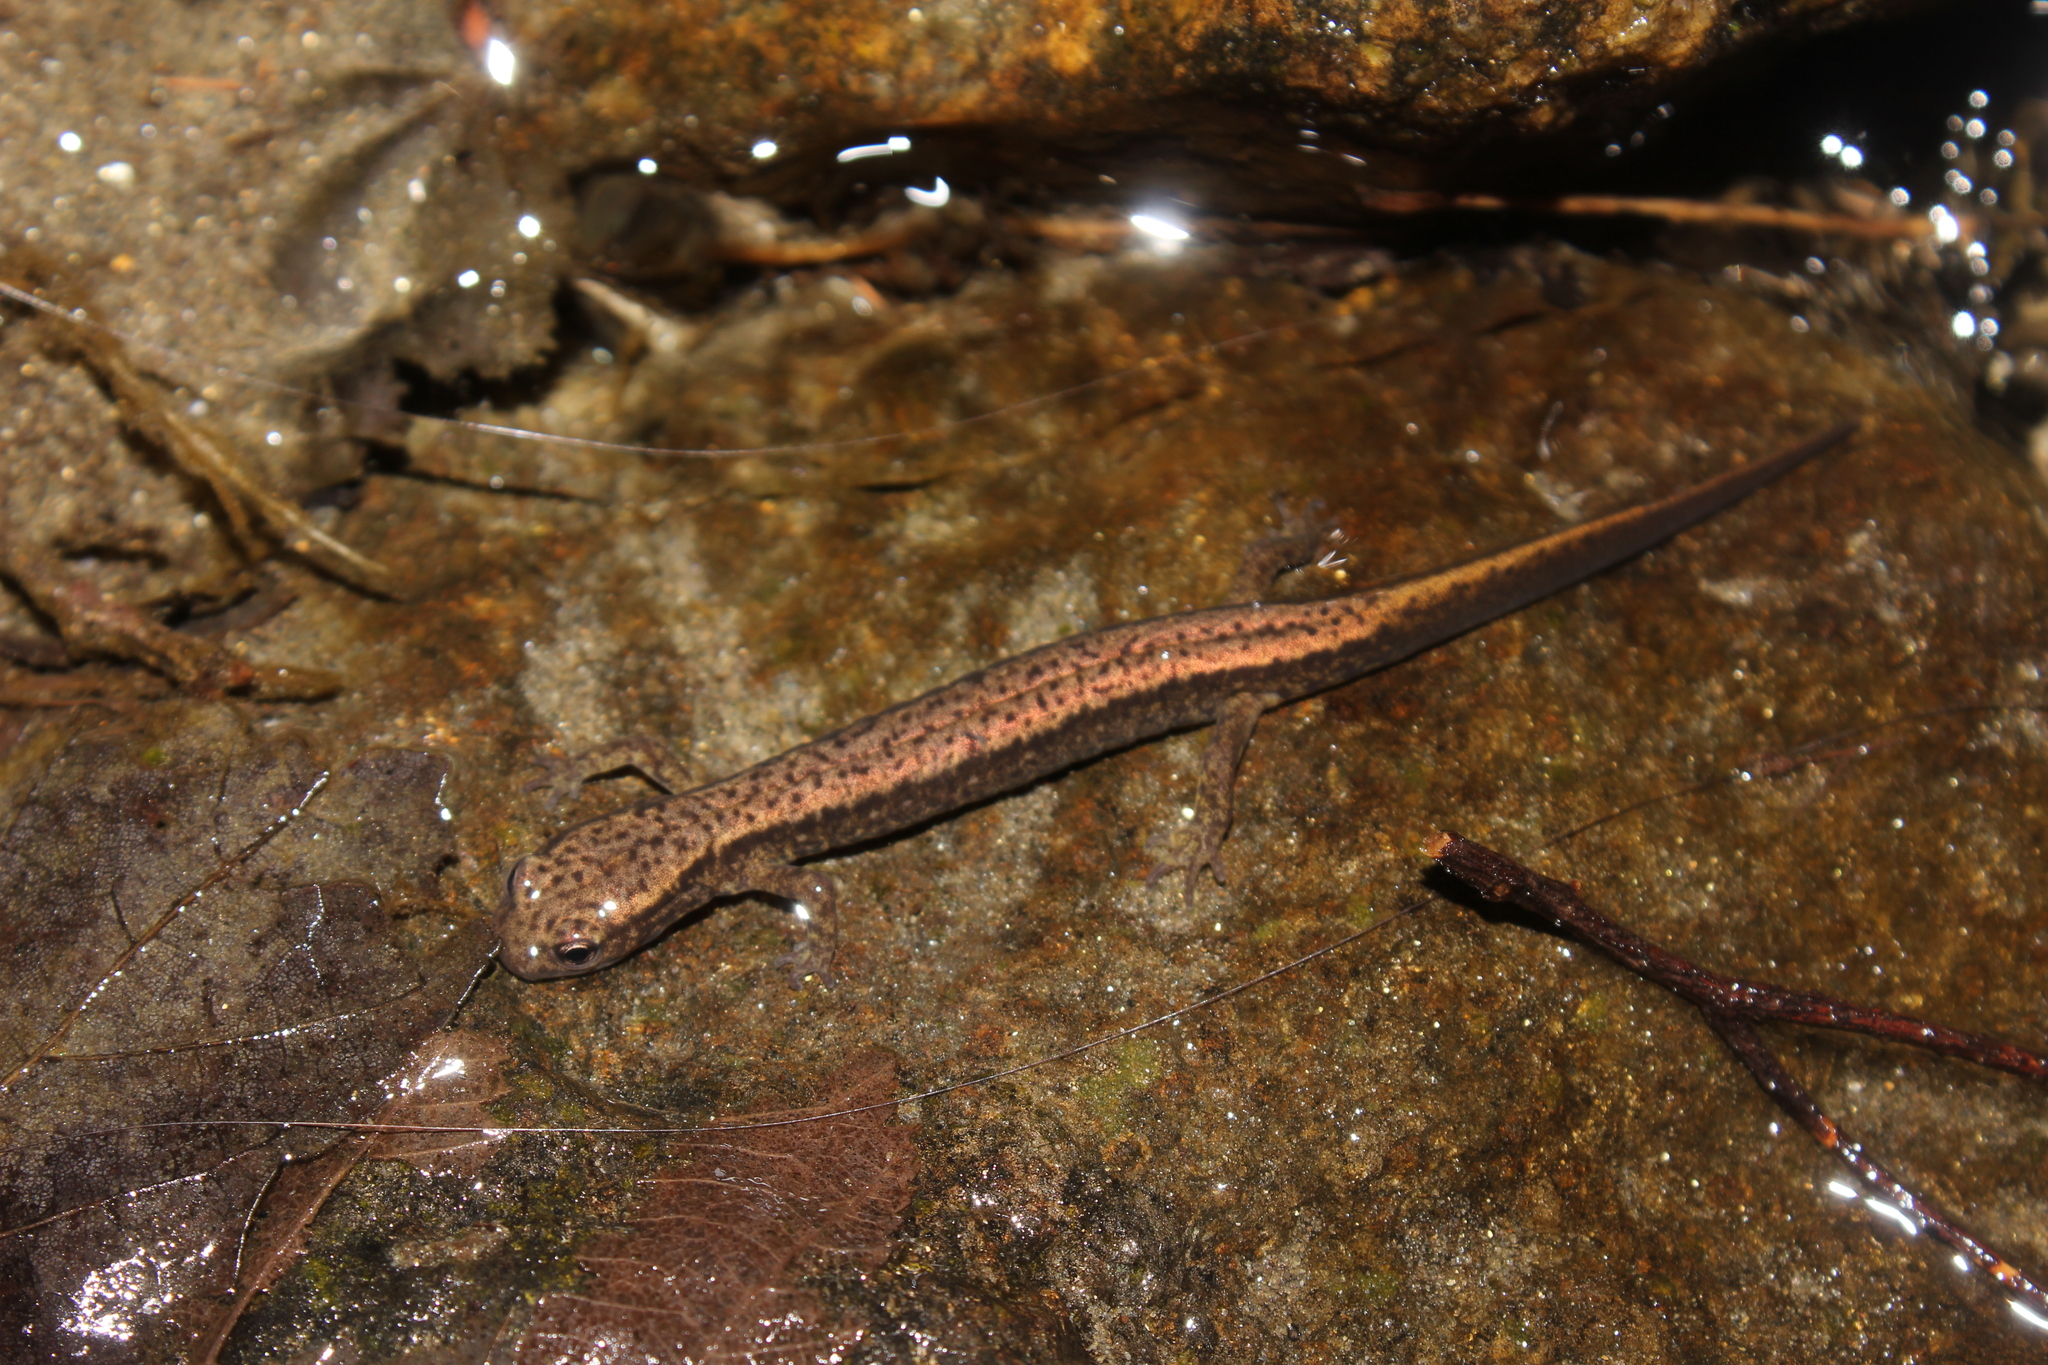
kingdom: Animalia
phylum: Chordata
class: Amphibia
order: Caudata
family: Plethodontidae
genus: Eurycea
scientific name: Eurycea bislineata
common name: Northern two-lined salamander
